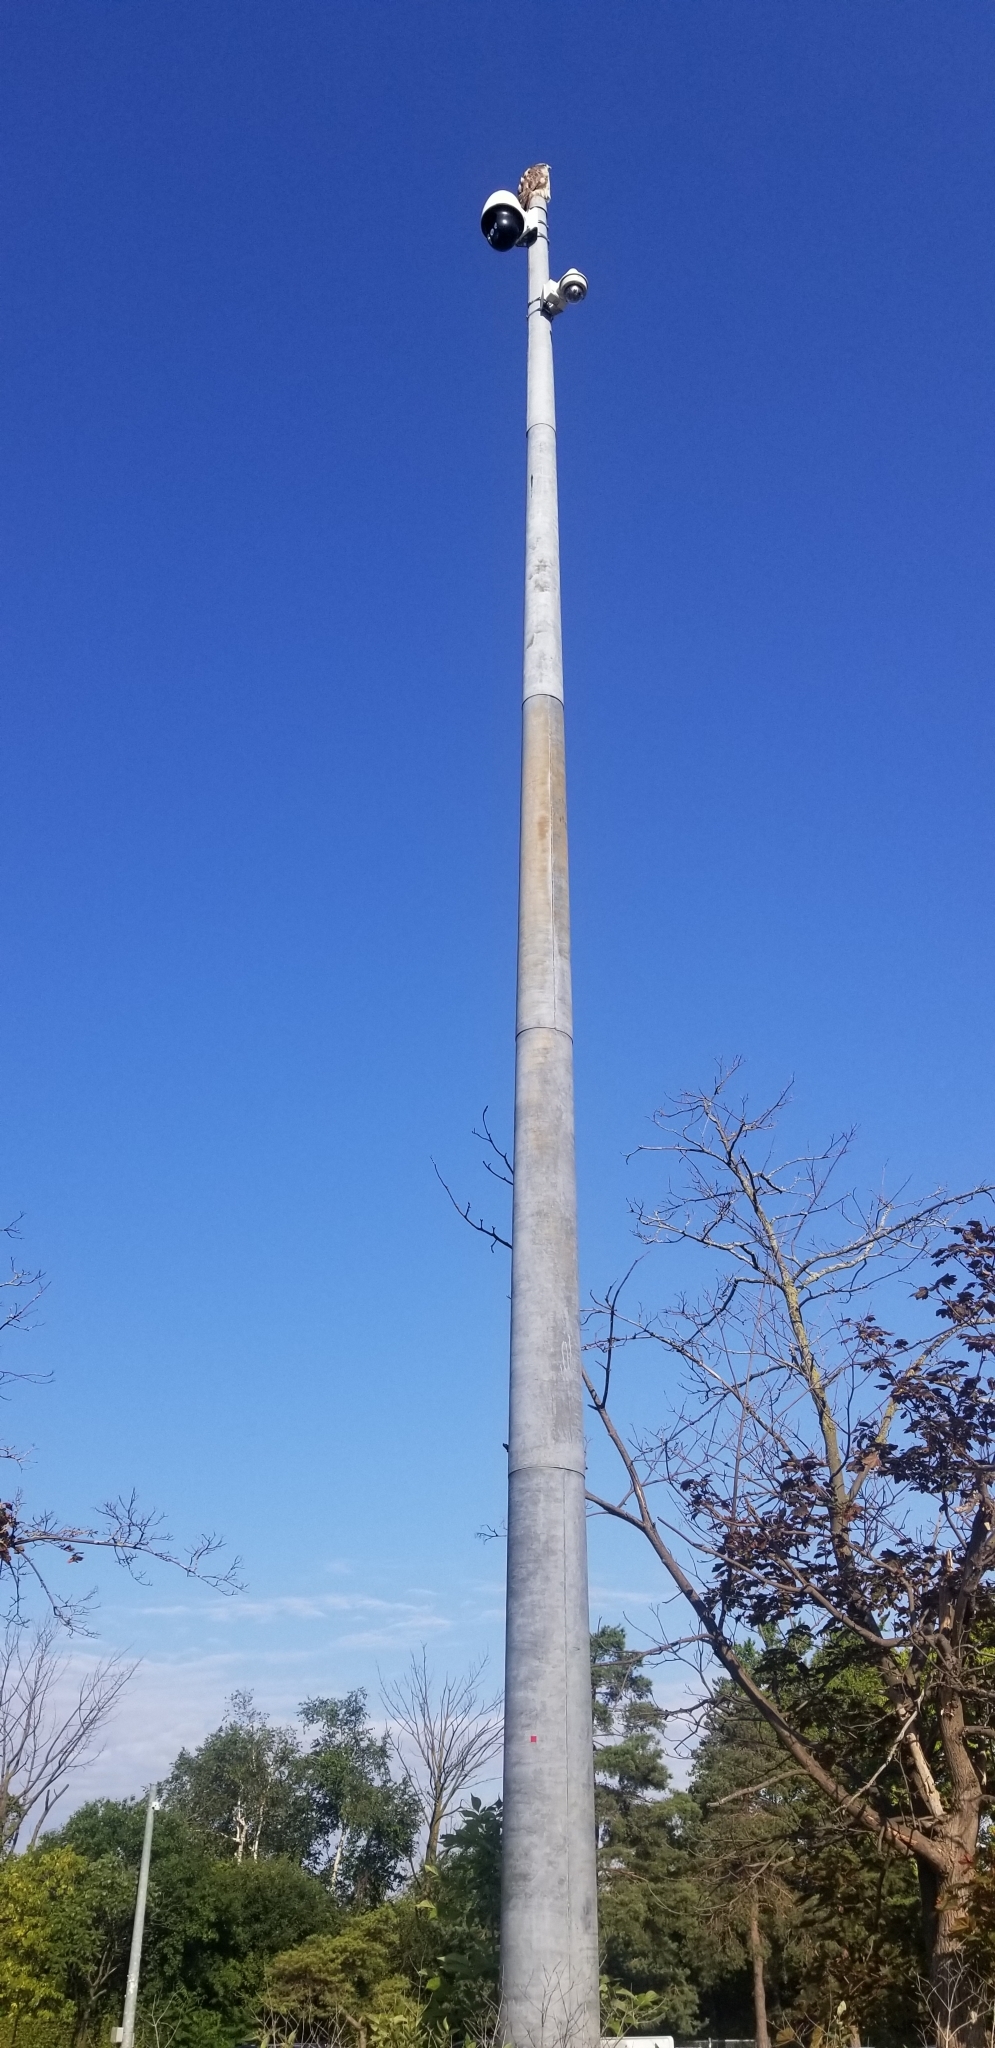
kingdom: Animalia
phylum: Chordata
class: Aves
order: Accipitriformes
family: Accipitridae
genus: Buteo
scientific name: Buteo jamaicensis
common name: Red-tailed hawk
